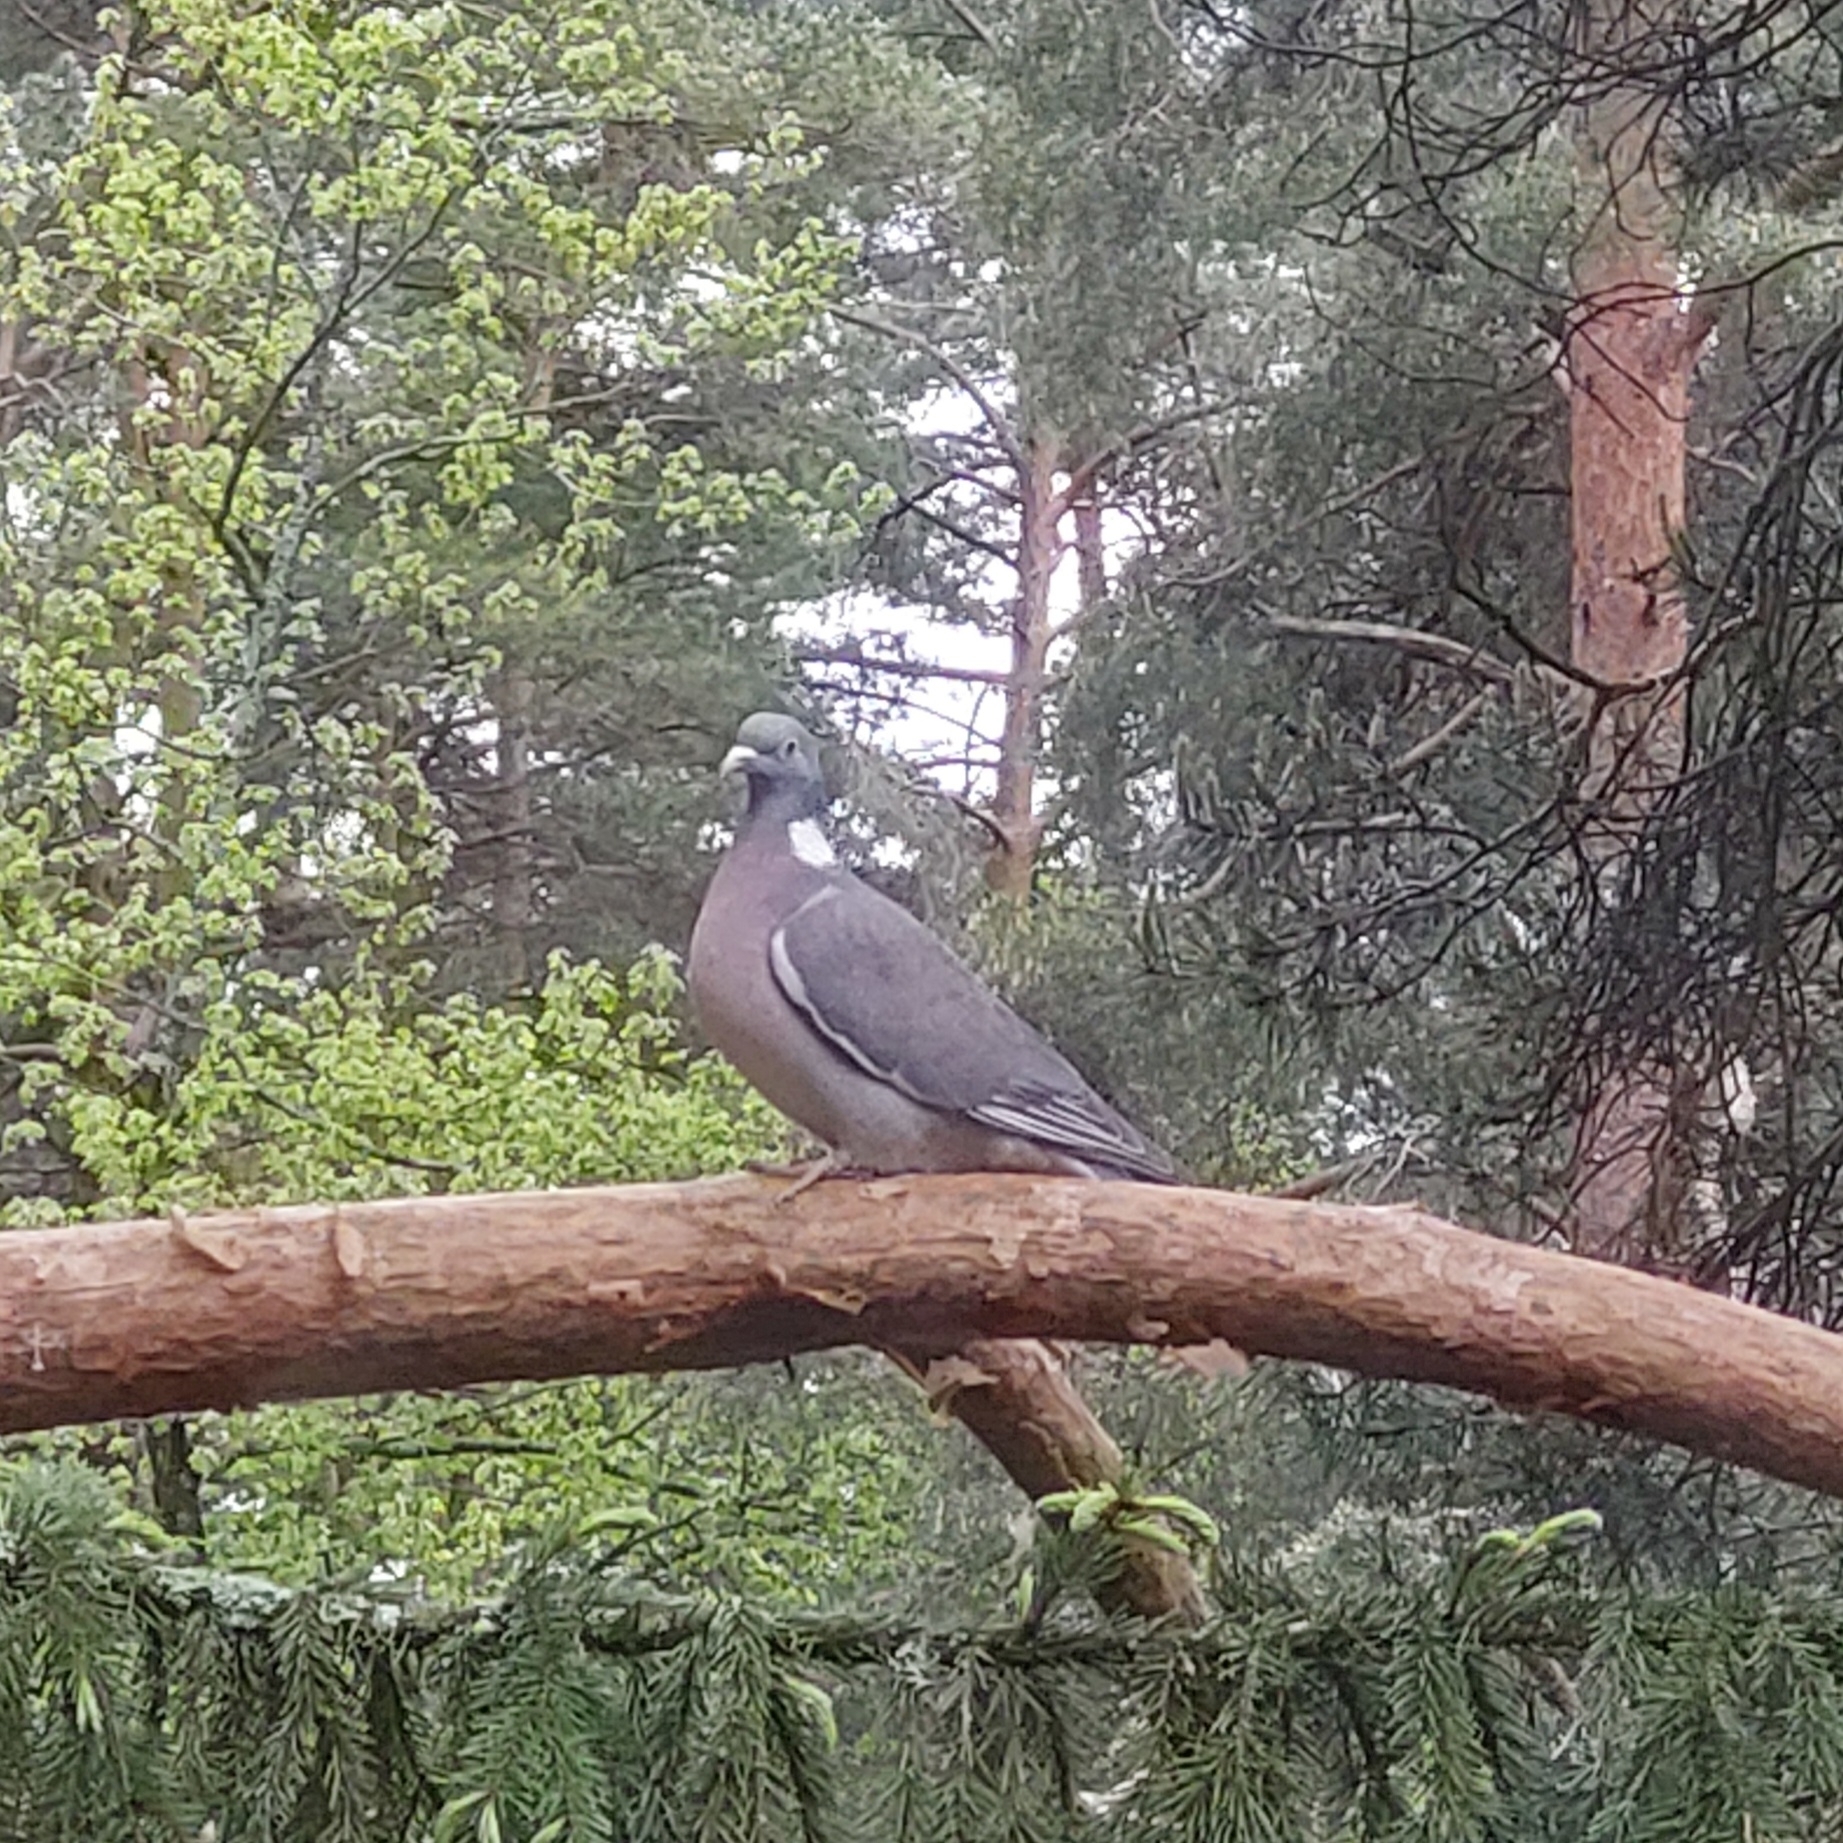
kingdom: Animalia
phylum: Chordata
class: Aves
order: Columbiformes
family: Columbidae
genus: Columba
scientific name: Columba palumbus
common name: Common wood pigeon
